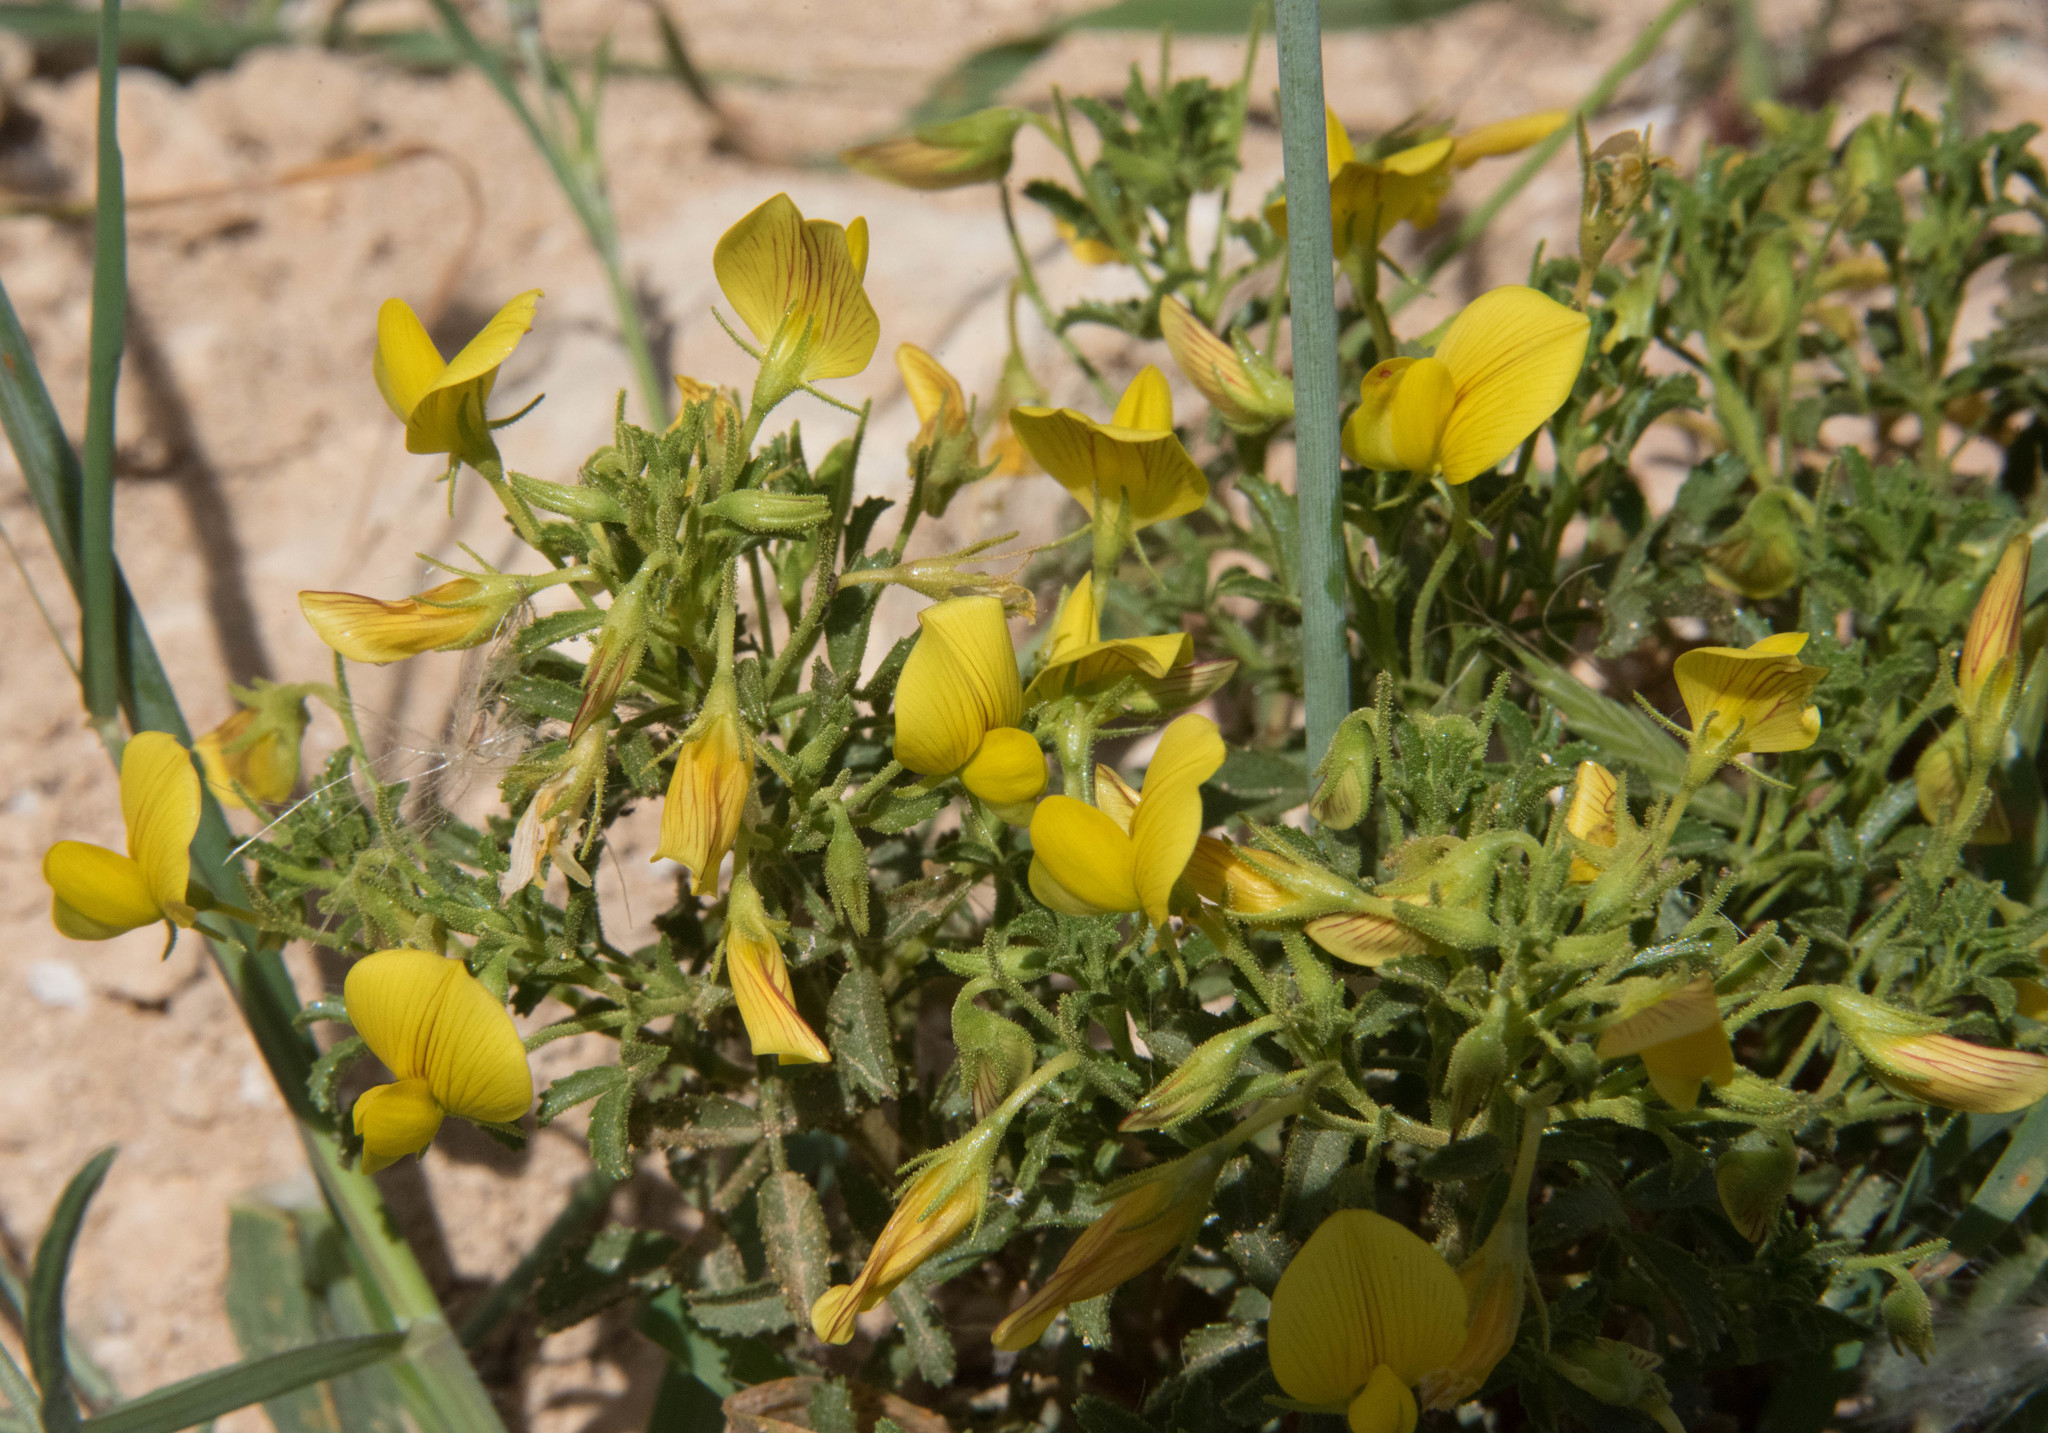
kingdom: Plantae
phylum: Tracheophyta
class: Magnoliopsida
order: Fabales
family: Fabaceae
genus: Ononis
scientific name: Ononis ramosissima
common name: Bush restharrow
